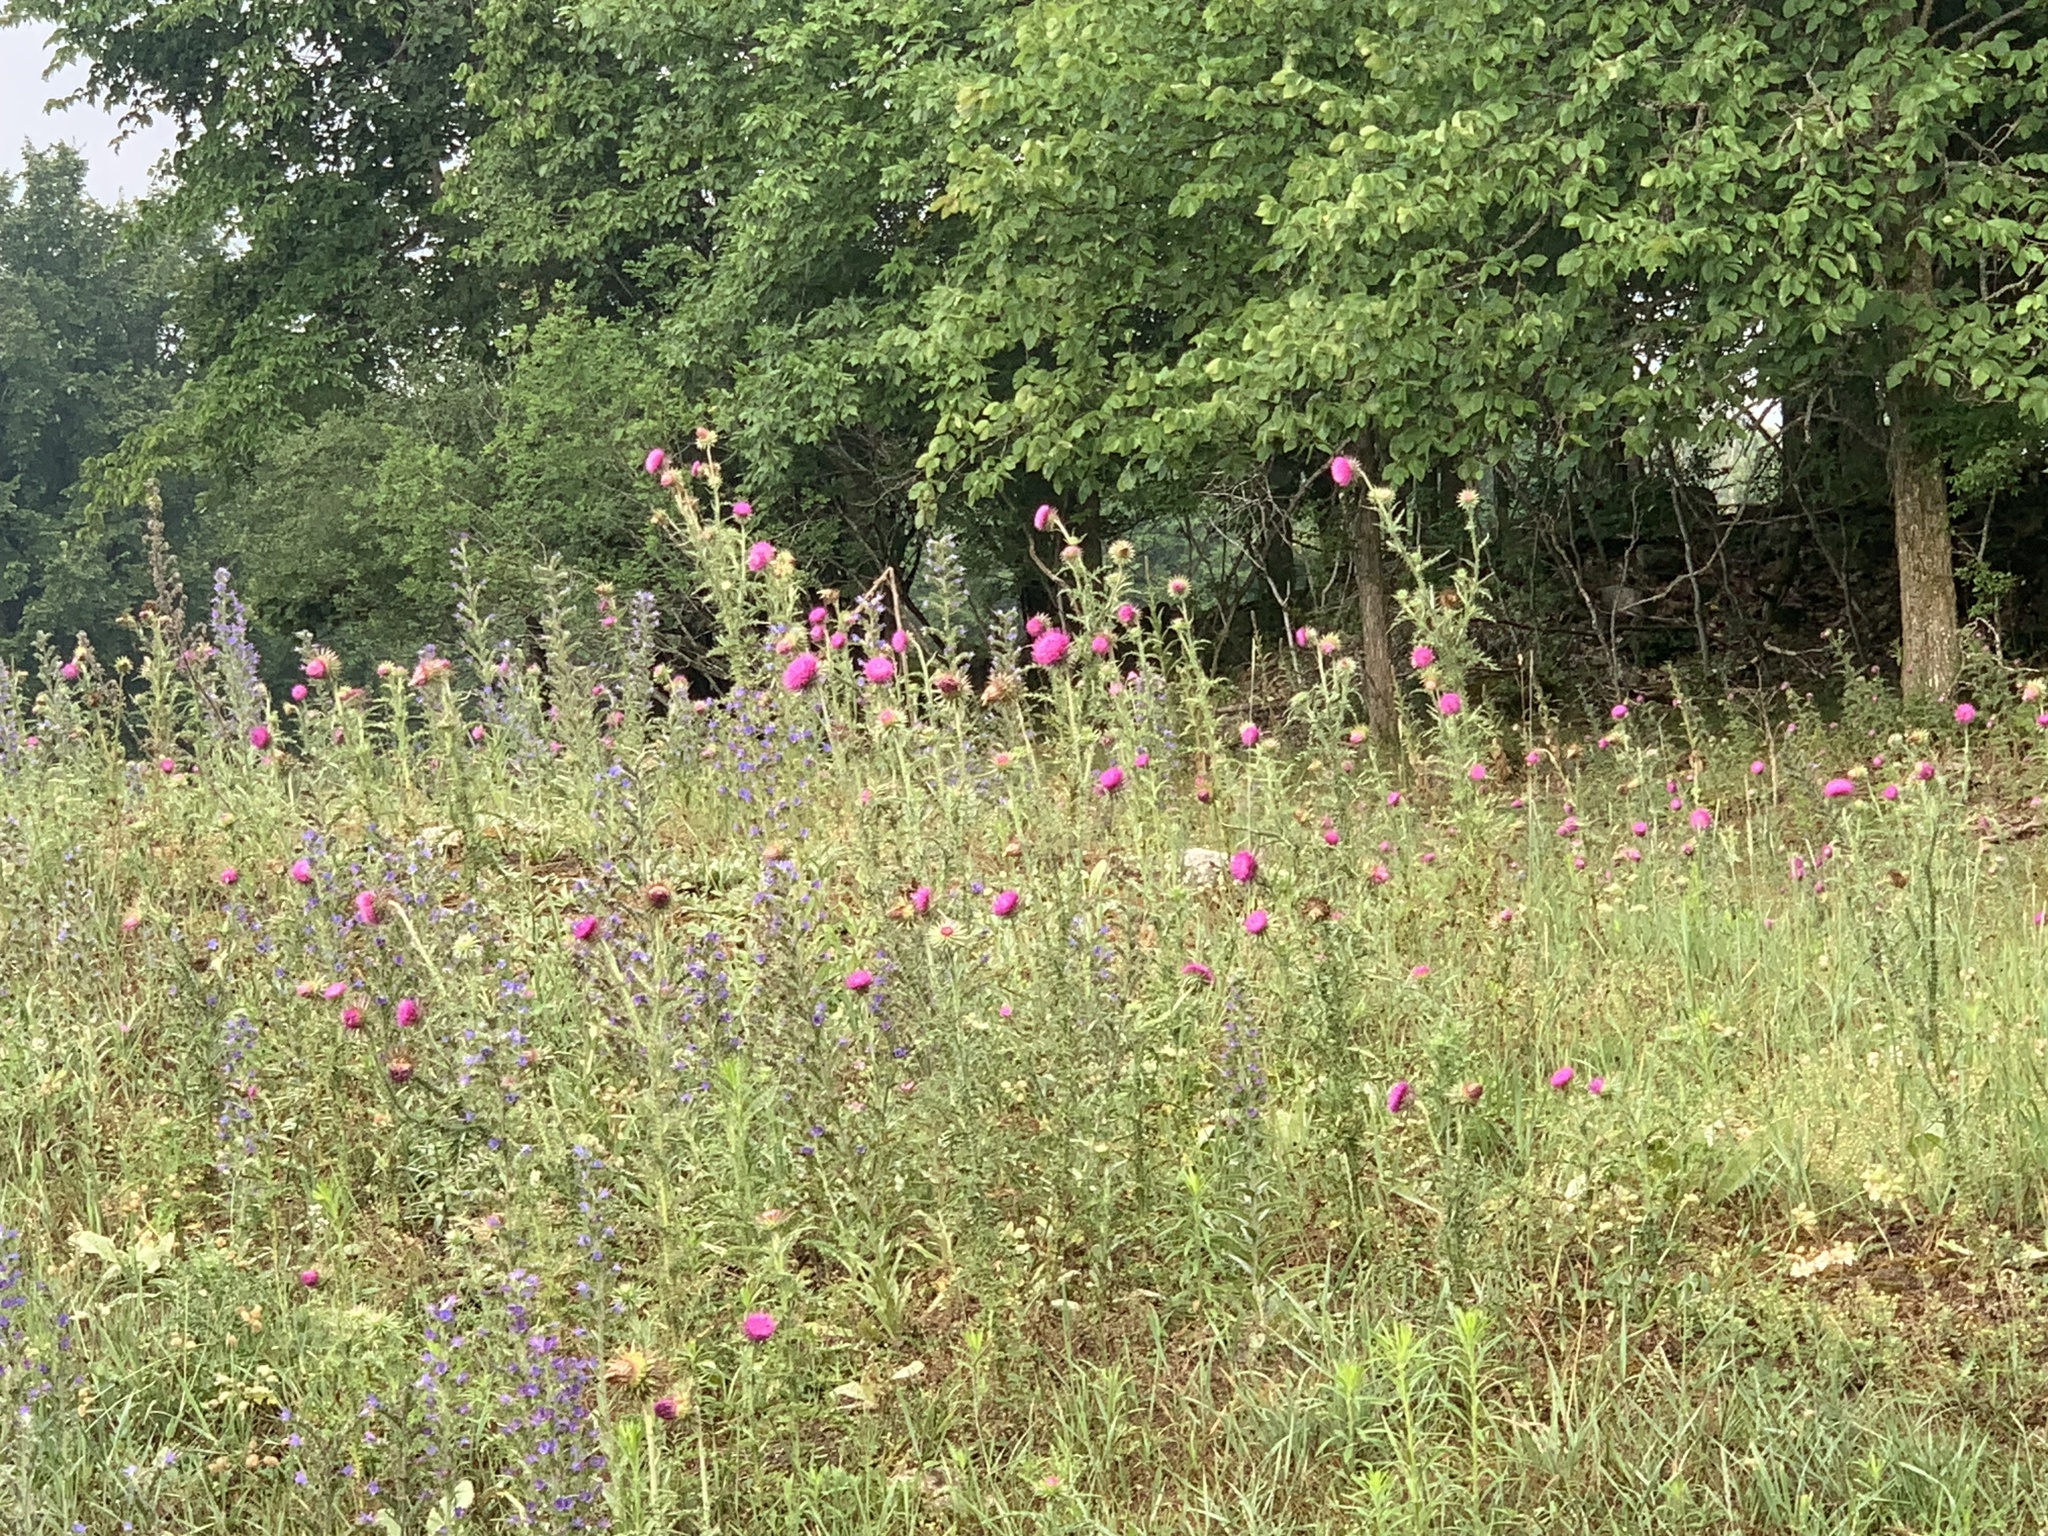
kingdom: Plantae
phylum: Tracheophyta
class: Magnoliopsida
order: Asterales
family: Asteraceae
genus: Carduus
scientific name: Carduus nutans
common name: Musk thistle
